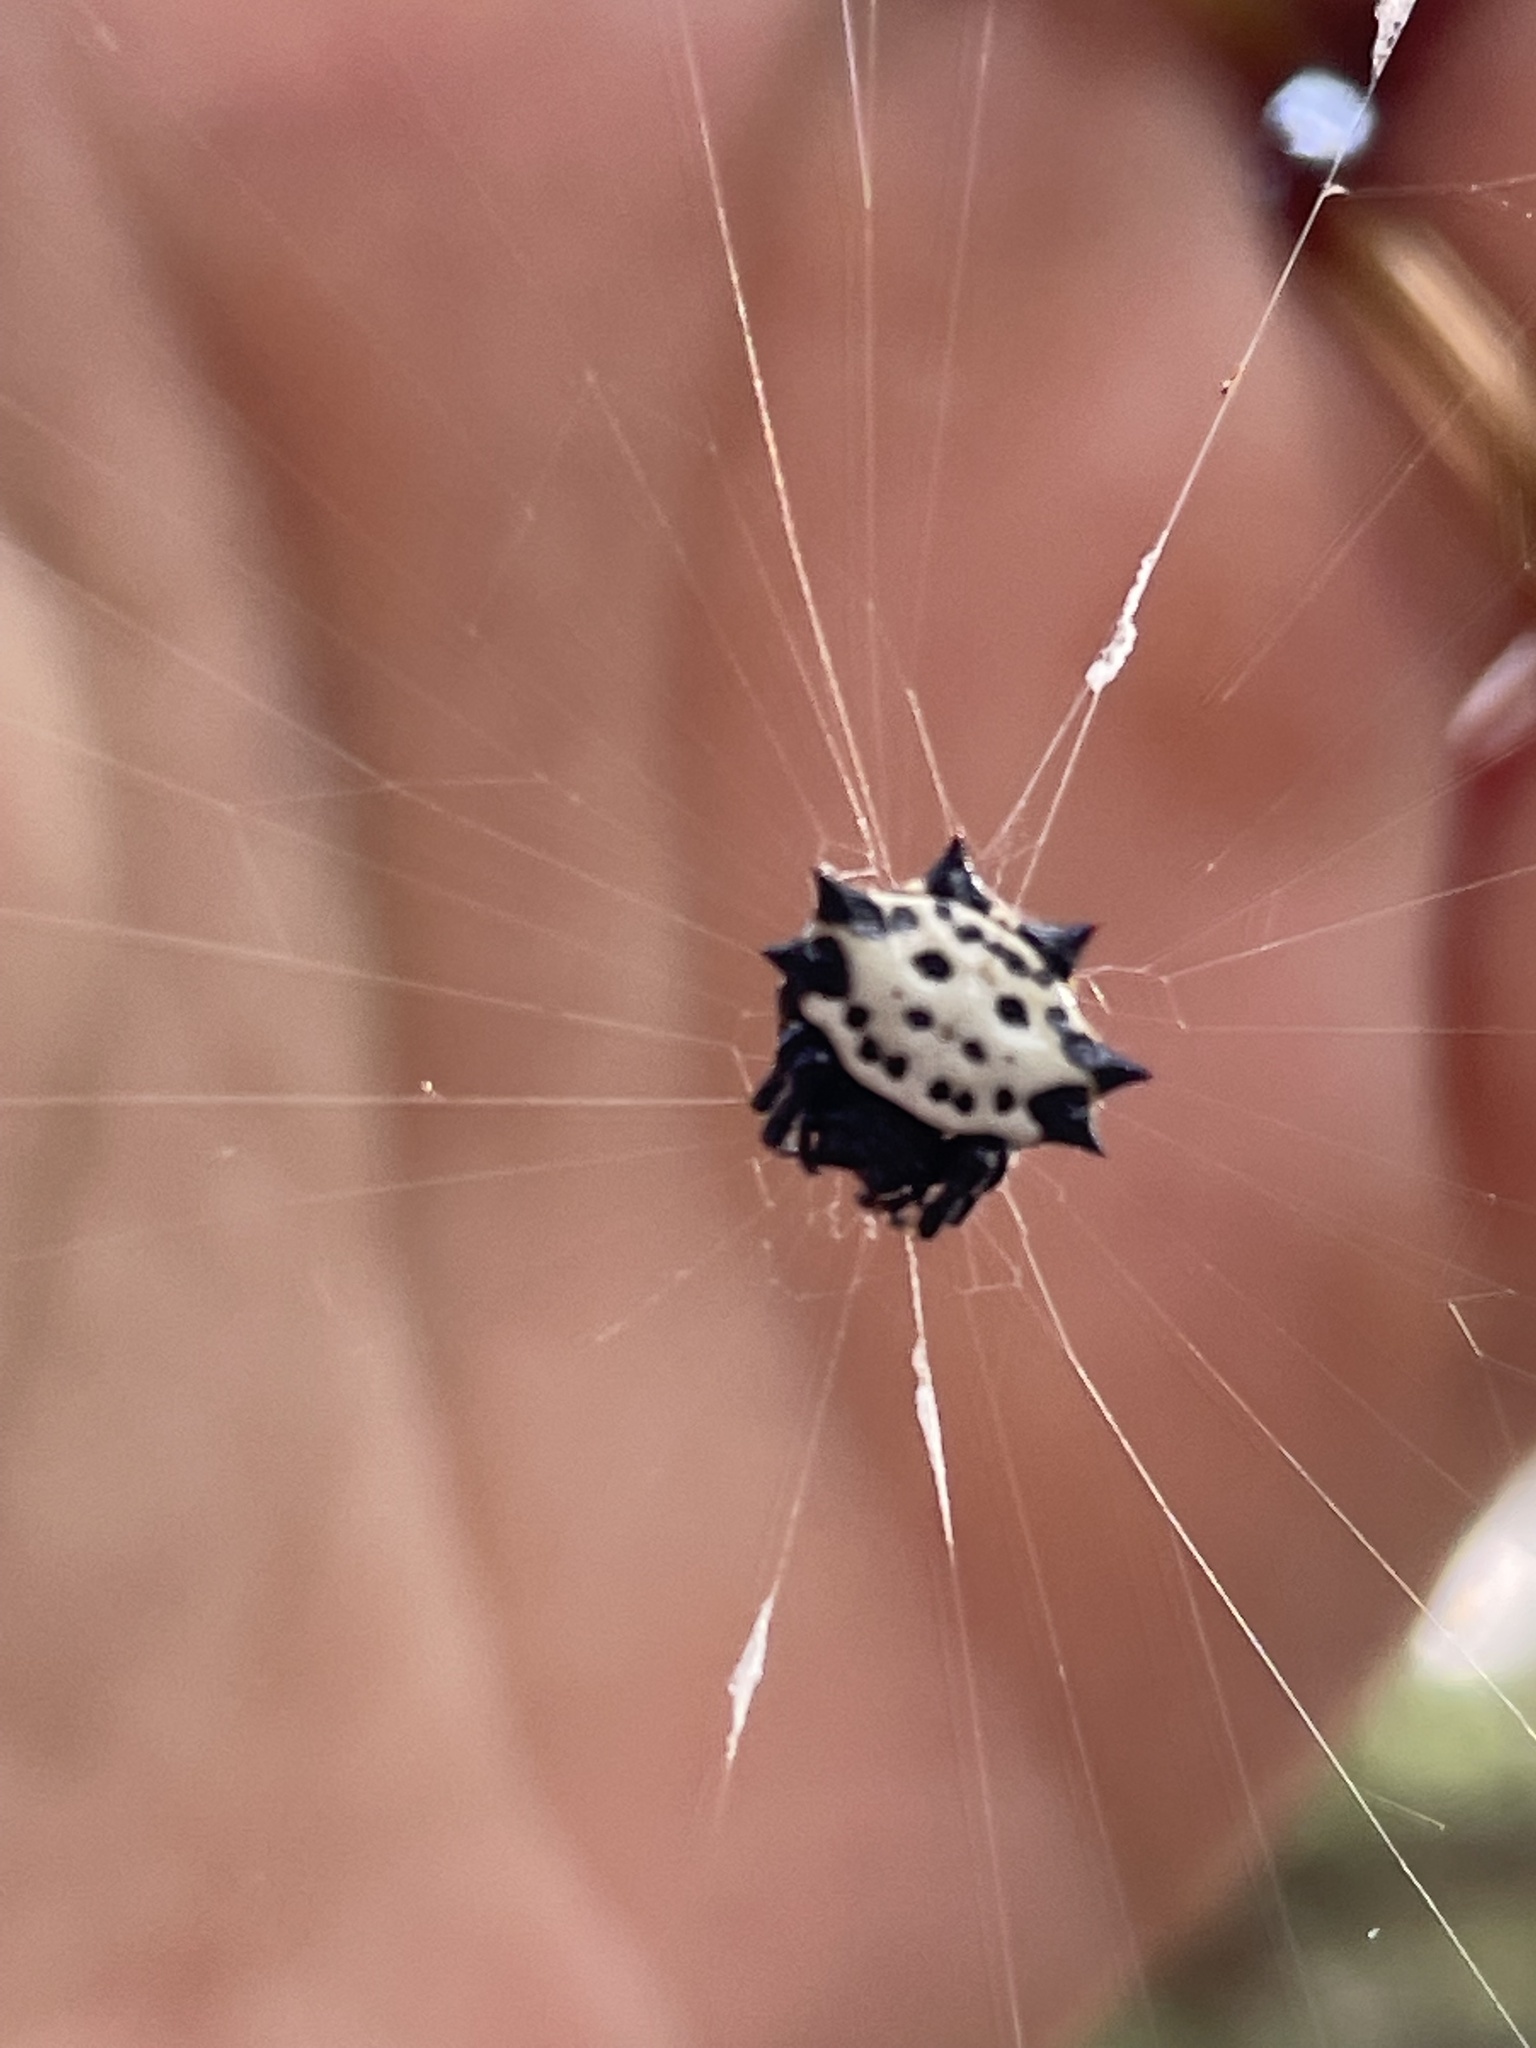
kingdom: Animalia
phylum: Arthropoda
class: Arachnida
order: Araneae
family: Araneidae
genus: Gasteracantha
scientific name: Gasteracantha cancriformis
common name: Orb weavers
